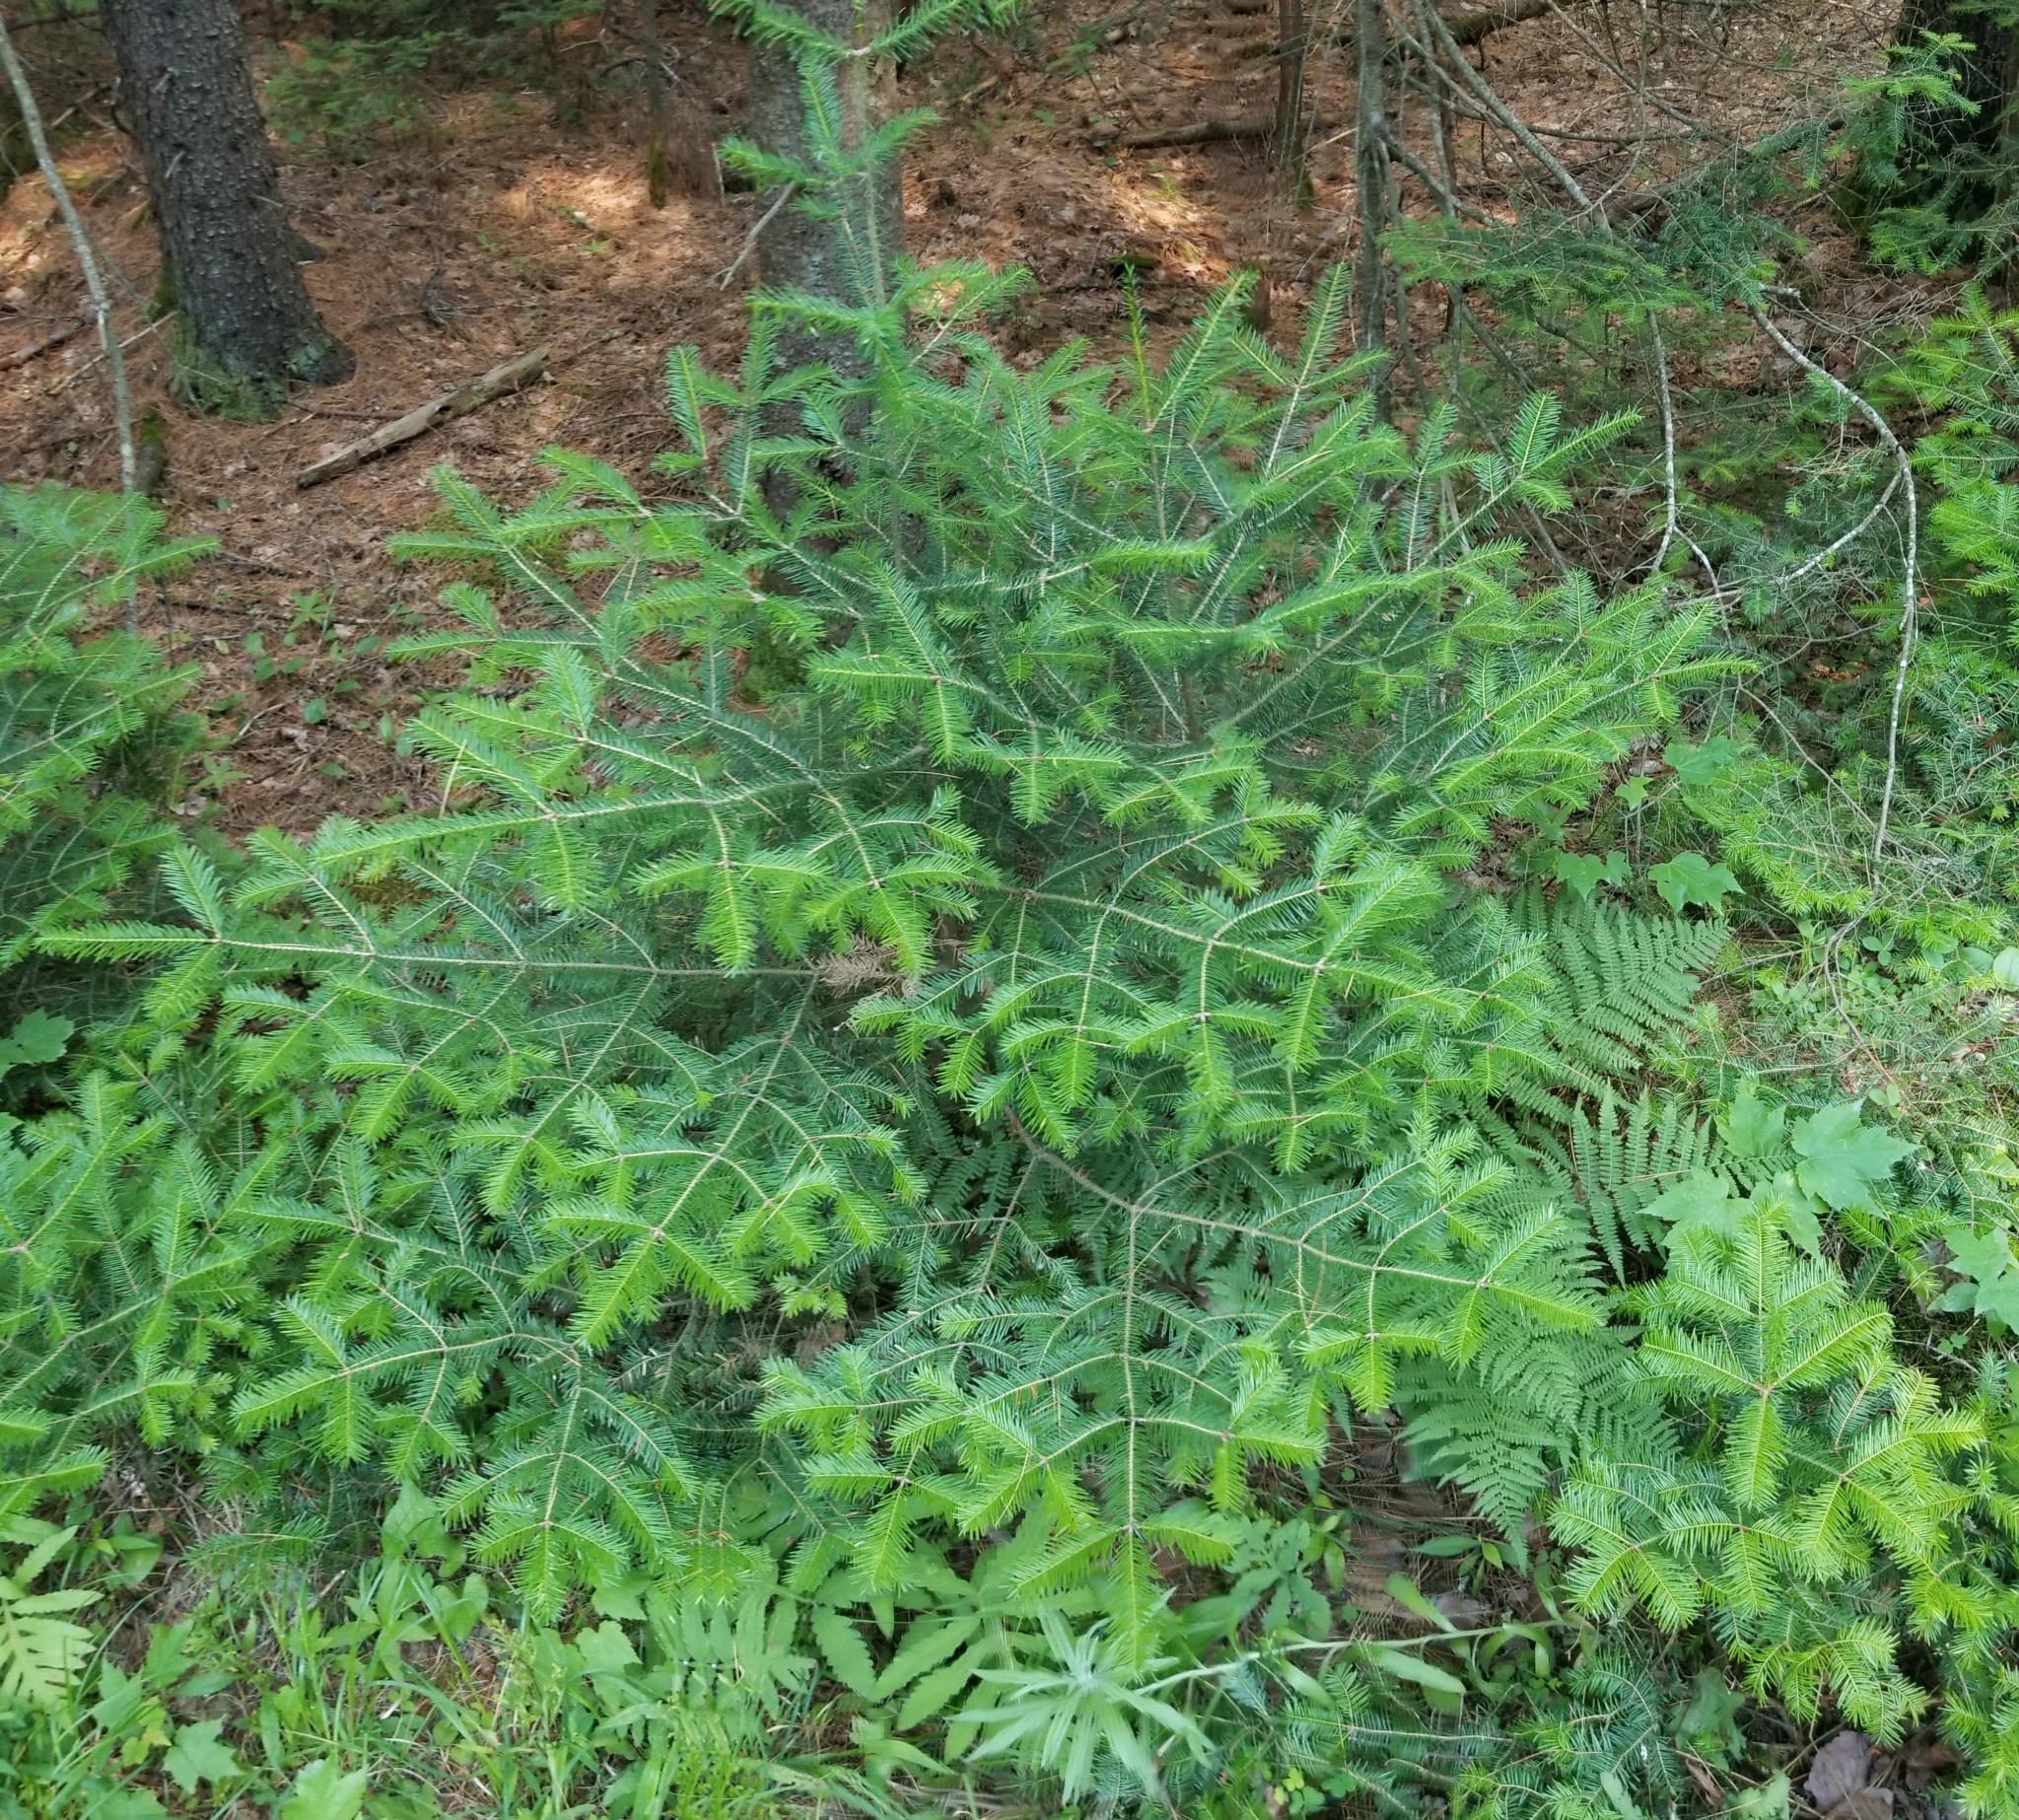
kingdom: Plantae
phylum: Tracheophyta
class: Pinopsida
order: Pinales
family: Pinaceae
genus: Abies
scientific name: Abies balsamea
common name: Balsam fir
